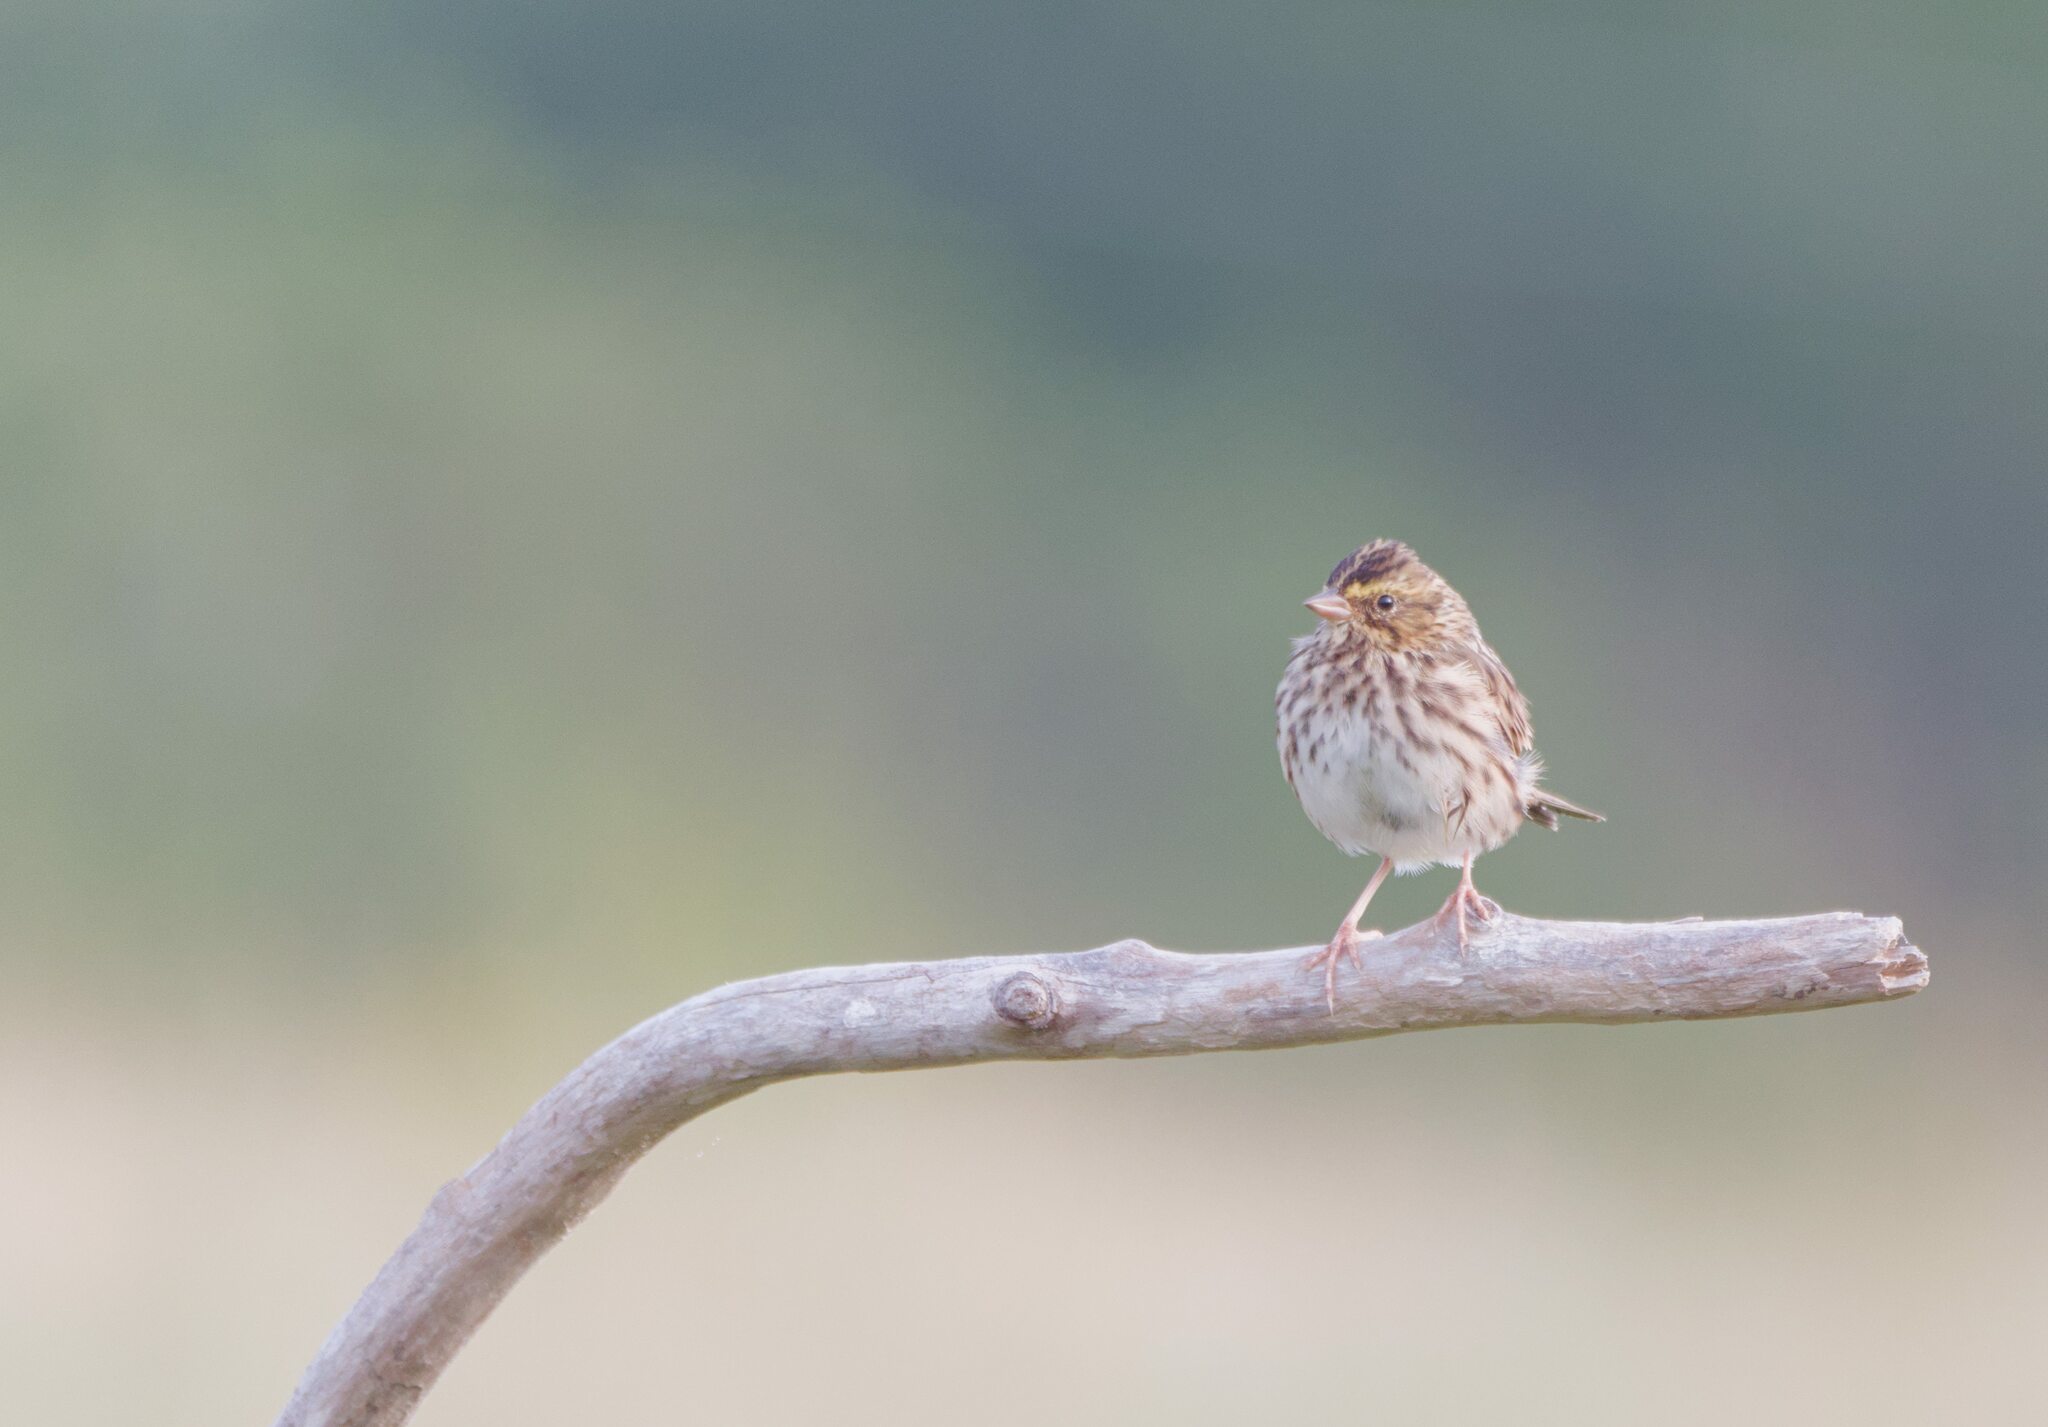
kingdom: Animalia
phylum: Chordata
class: Aves
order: Passeriformes
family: Passerellidae
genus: Passerculus
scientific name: Passerculus sandwichensis
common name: Savannah sparrow
